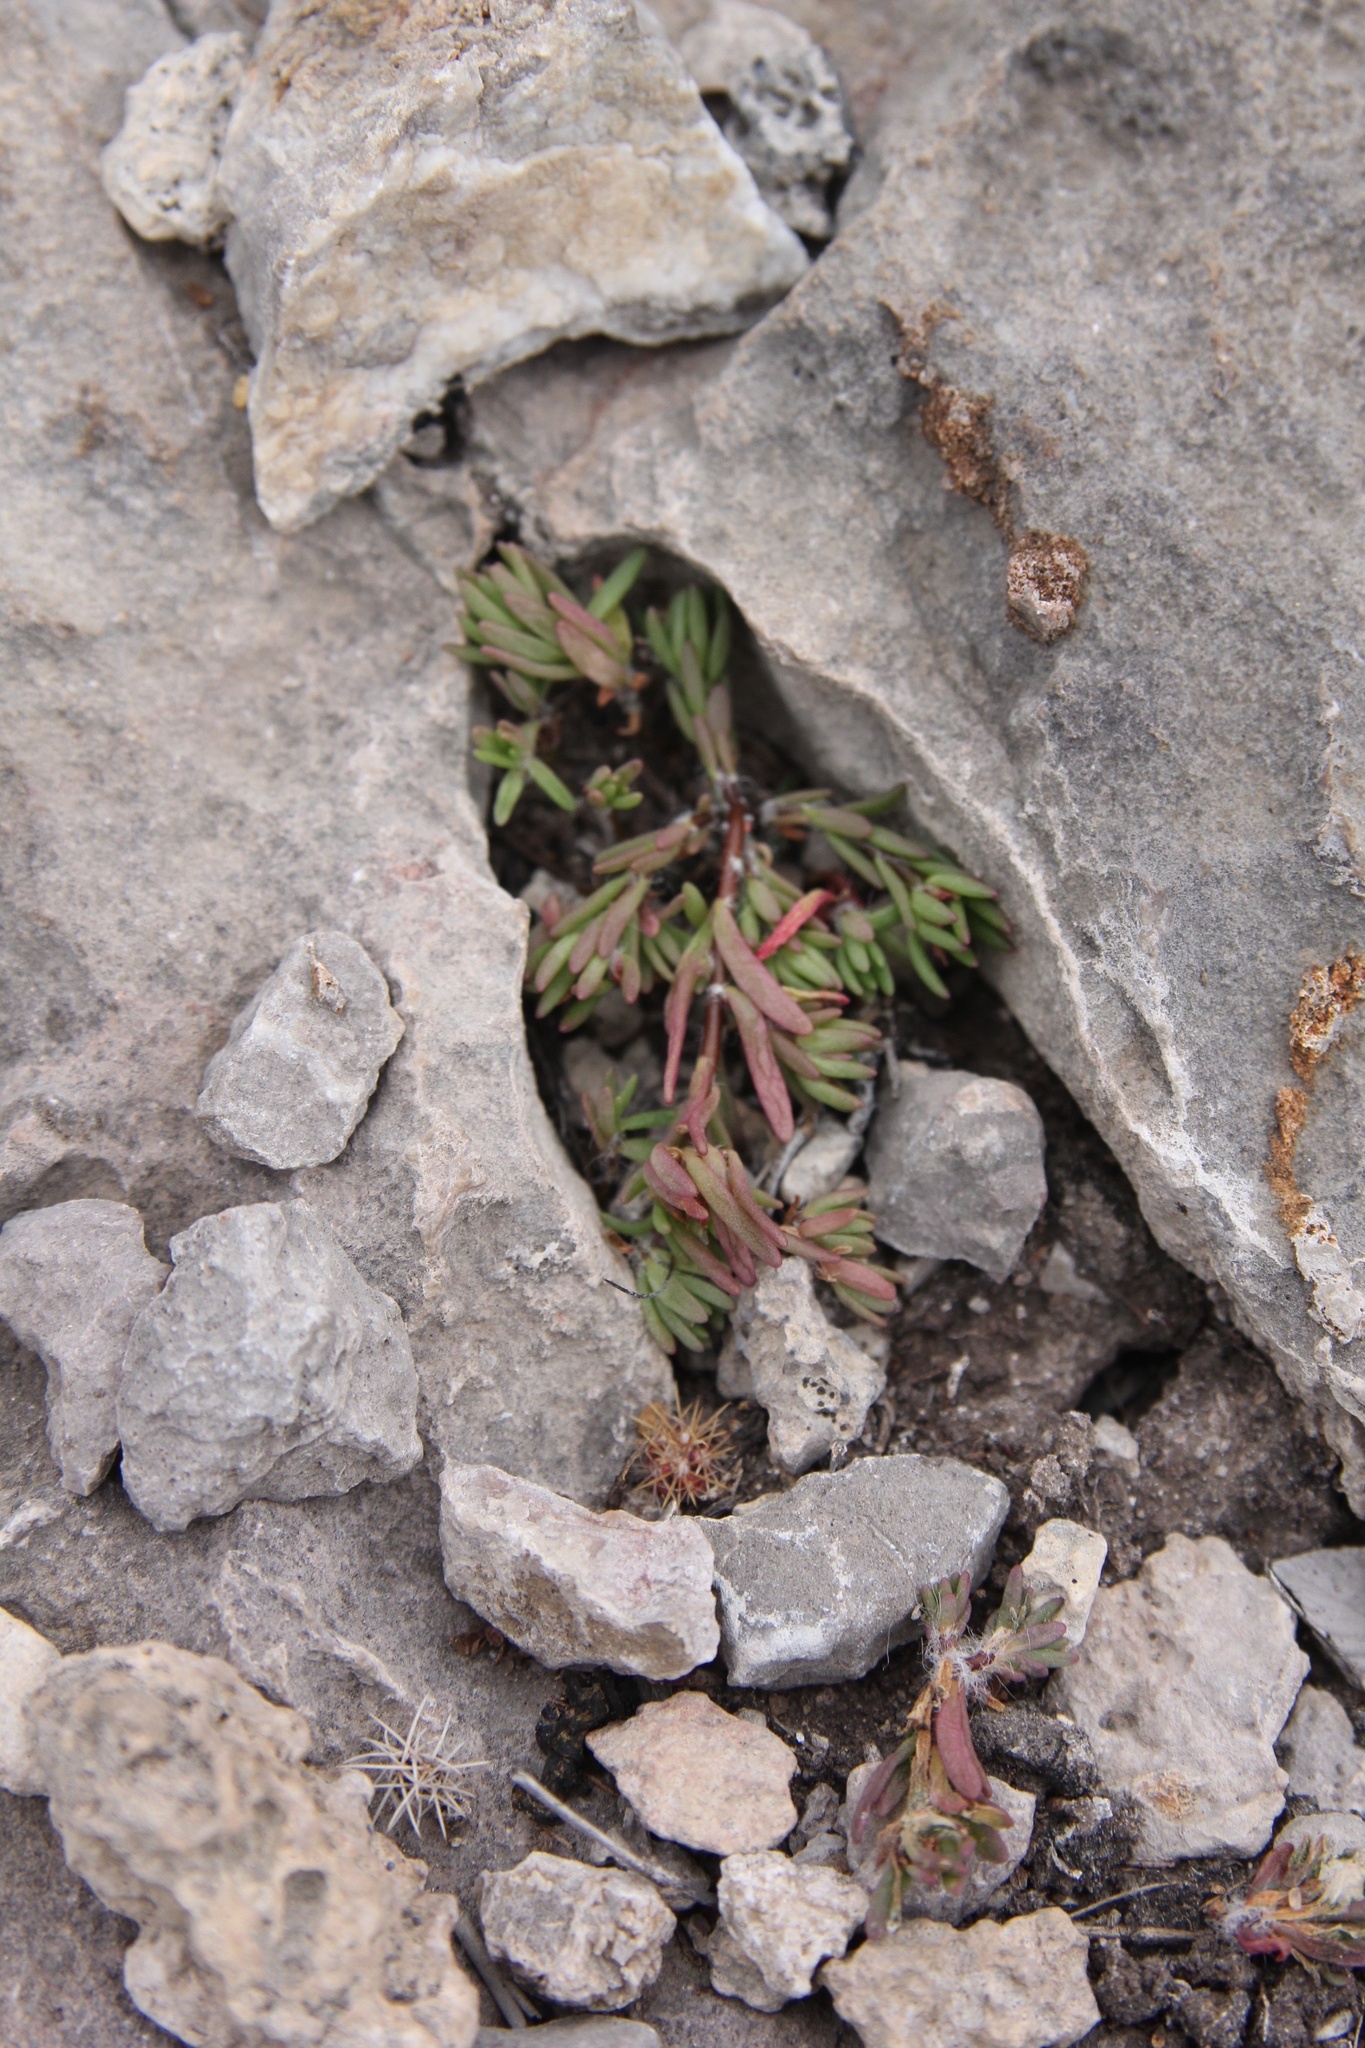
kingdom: Plantae
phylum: Tracheophyta
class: Magnoliopsida
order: Caryophyllales
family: Portulacaceae
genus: Portulaca
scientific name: Portulaca pilosa
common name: Kiss me quick
